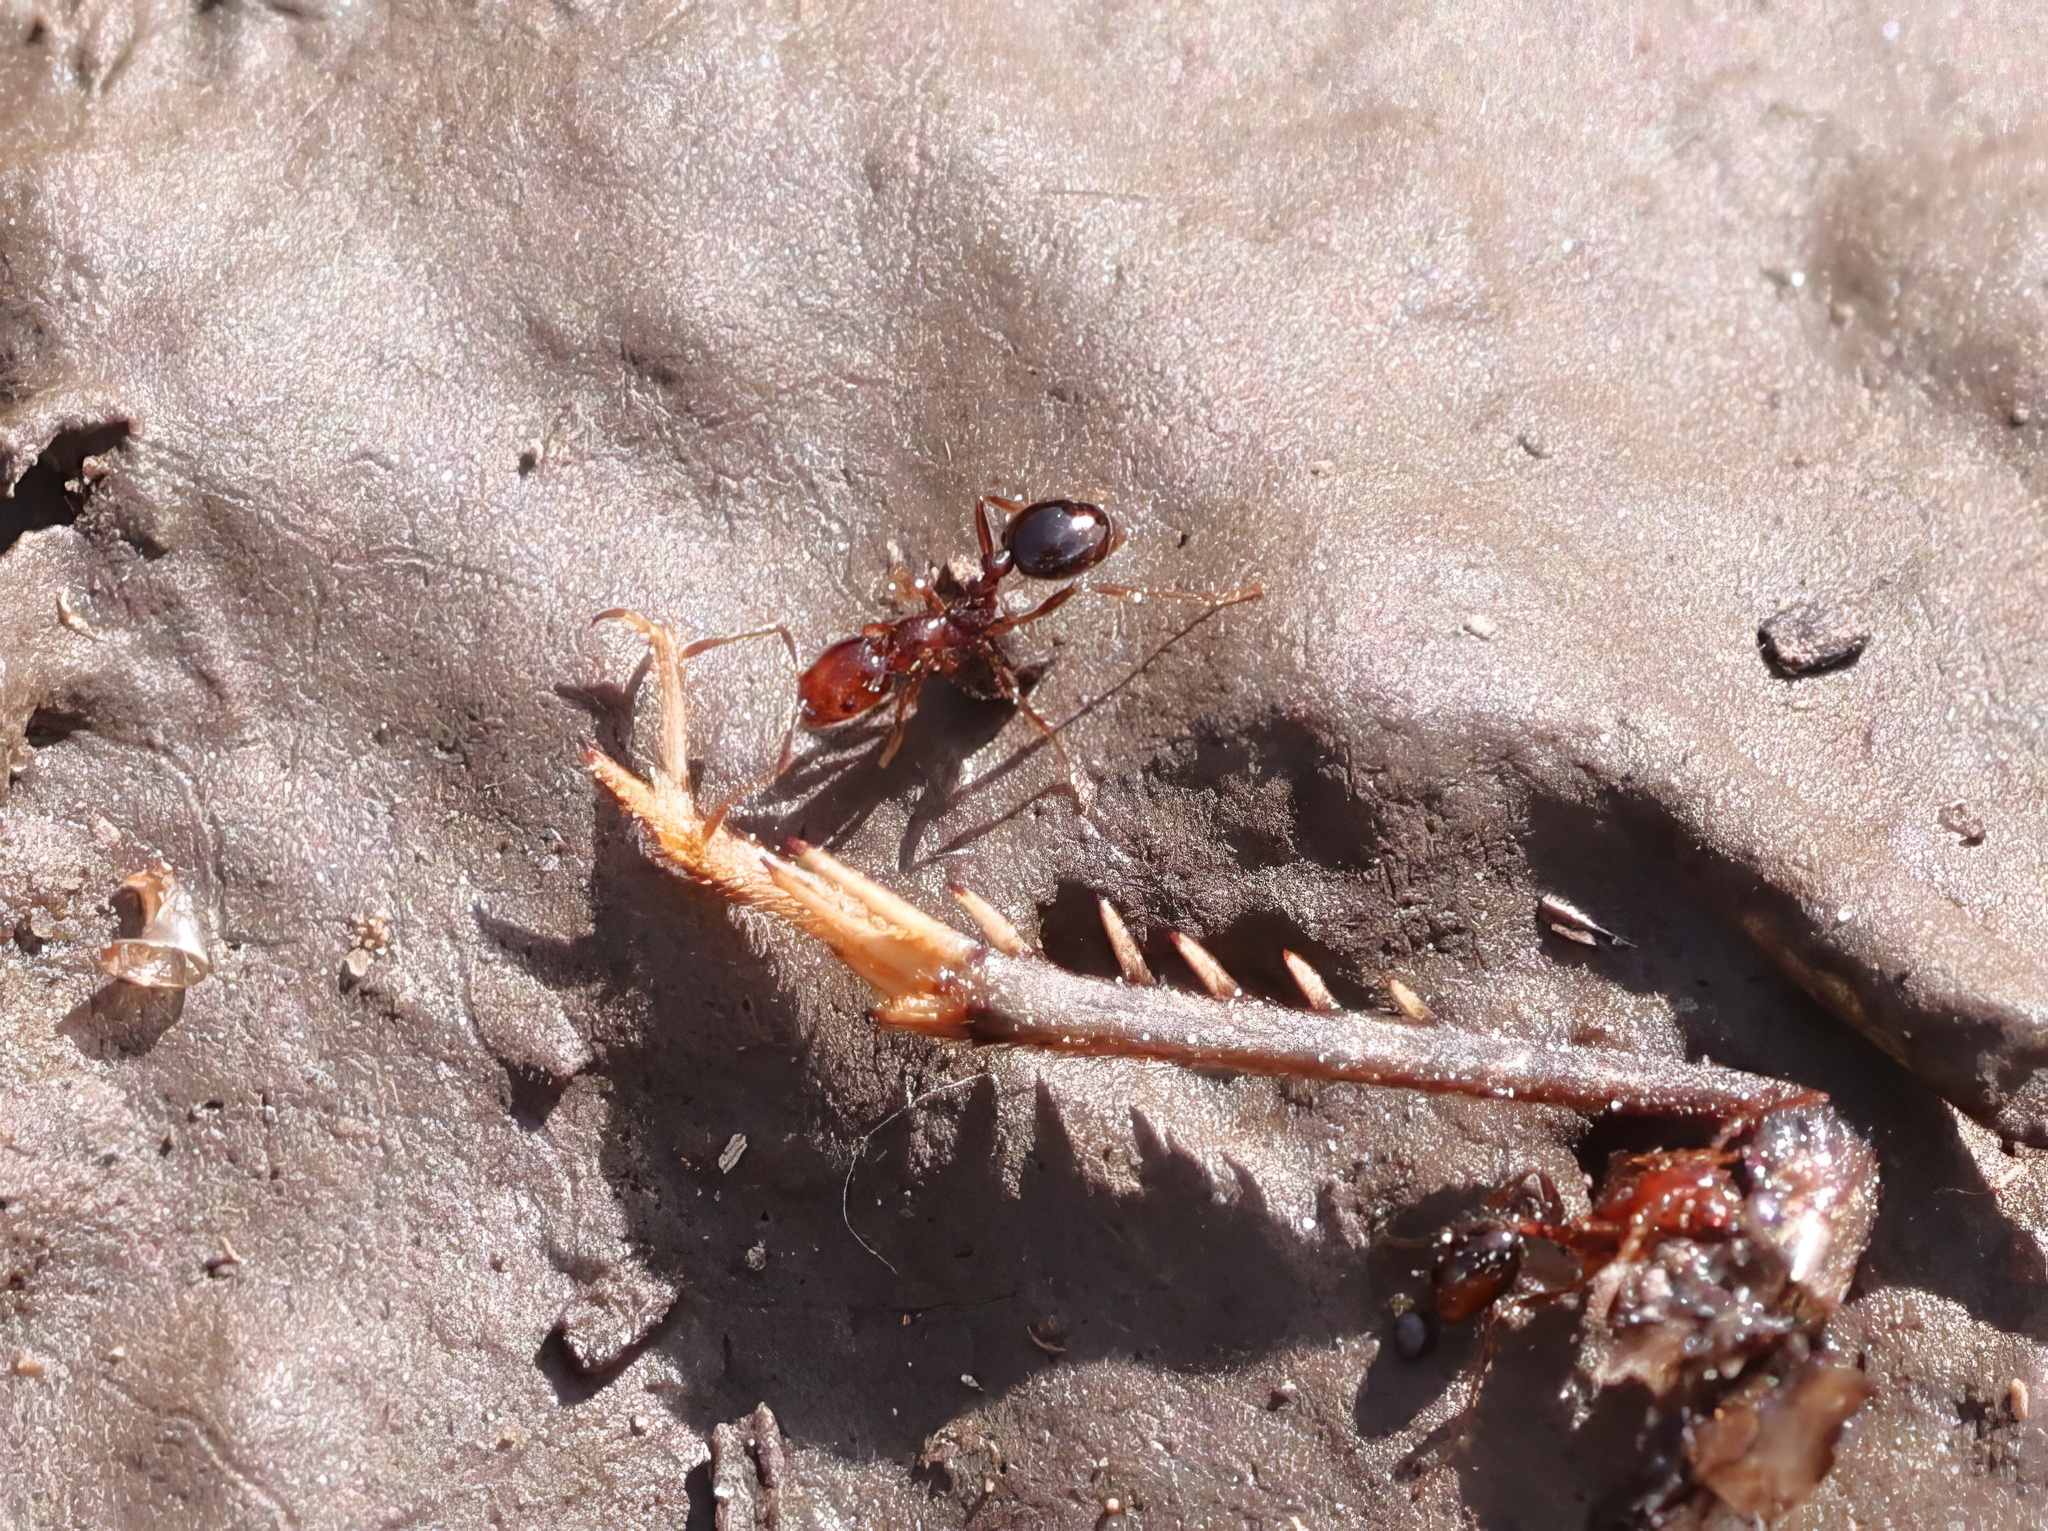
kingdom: Animalia
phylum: Arthropoda
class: Insecta
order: Hymenoptera
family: Formicidae
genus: Solenopsis
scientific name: Solenopsis xyloni
